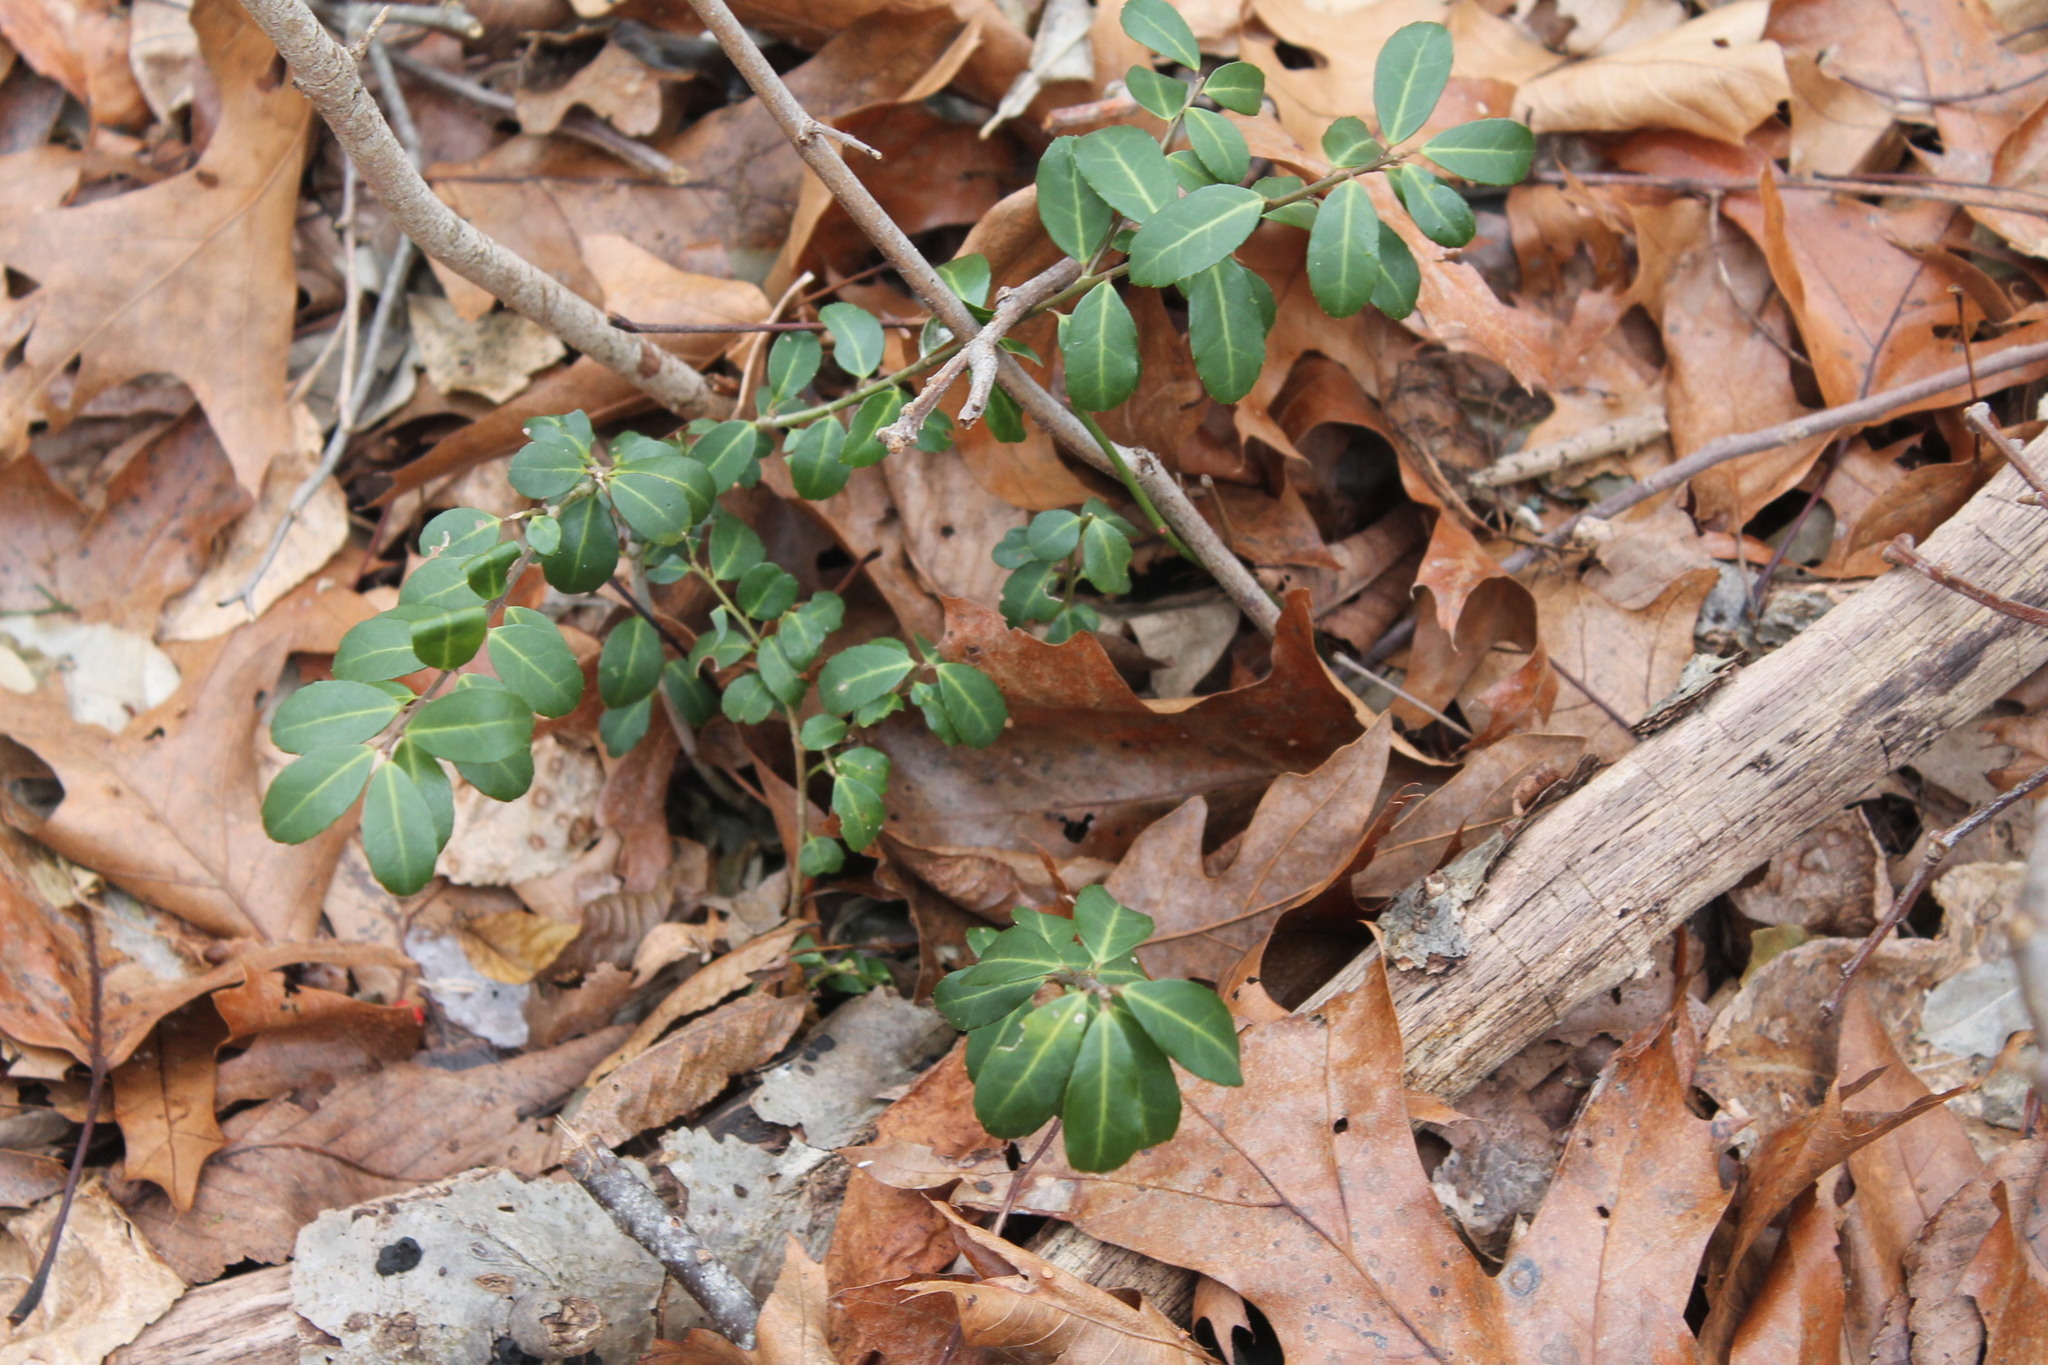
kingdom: Plantae
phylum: Tracheophyta
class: Magnoliopsida
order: Aquifoliales
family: Aquifoliaceae
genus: Ilex
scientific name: Ilex crenata
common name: Japanese holly
